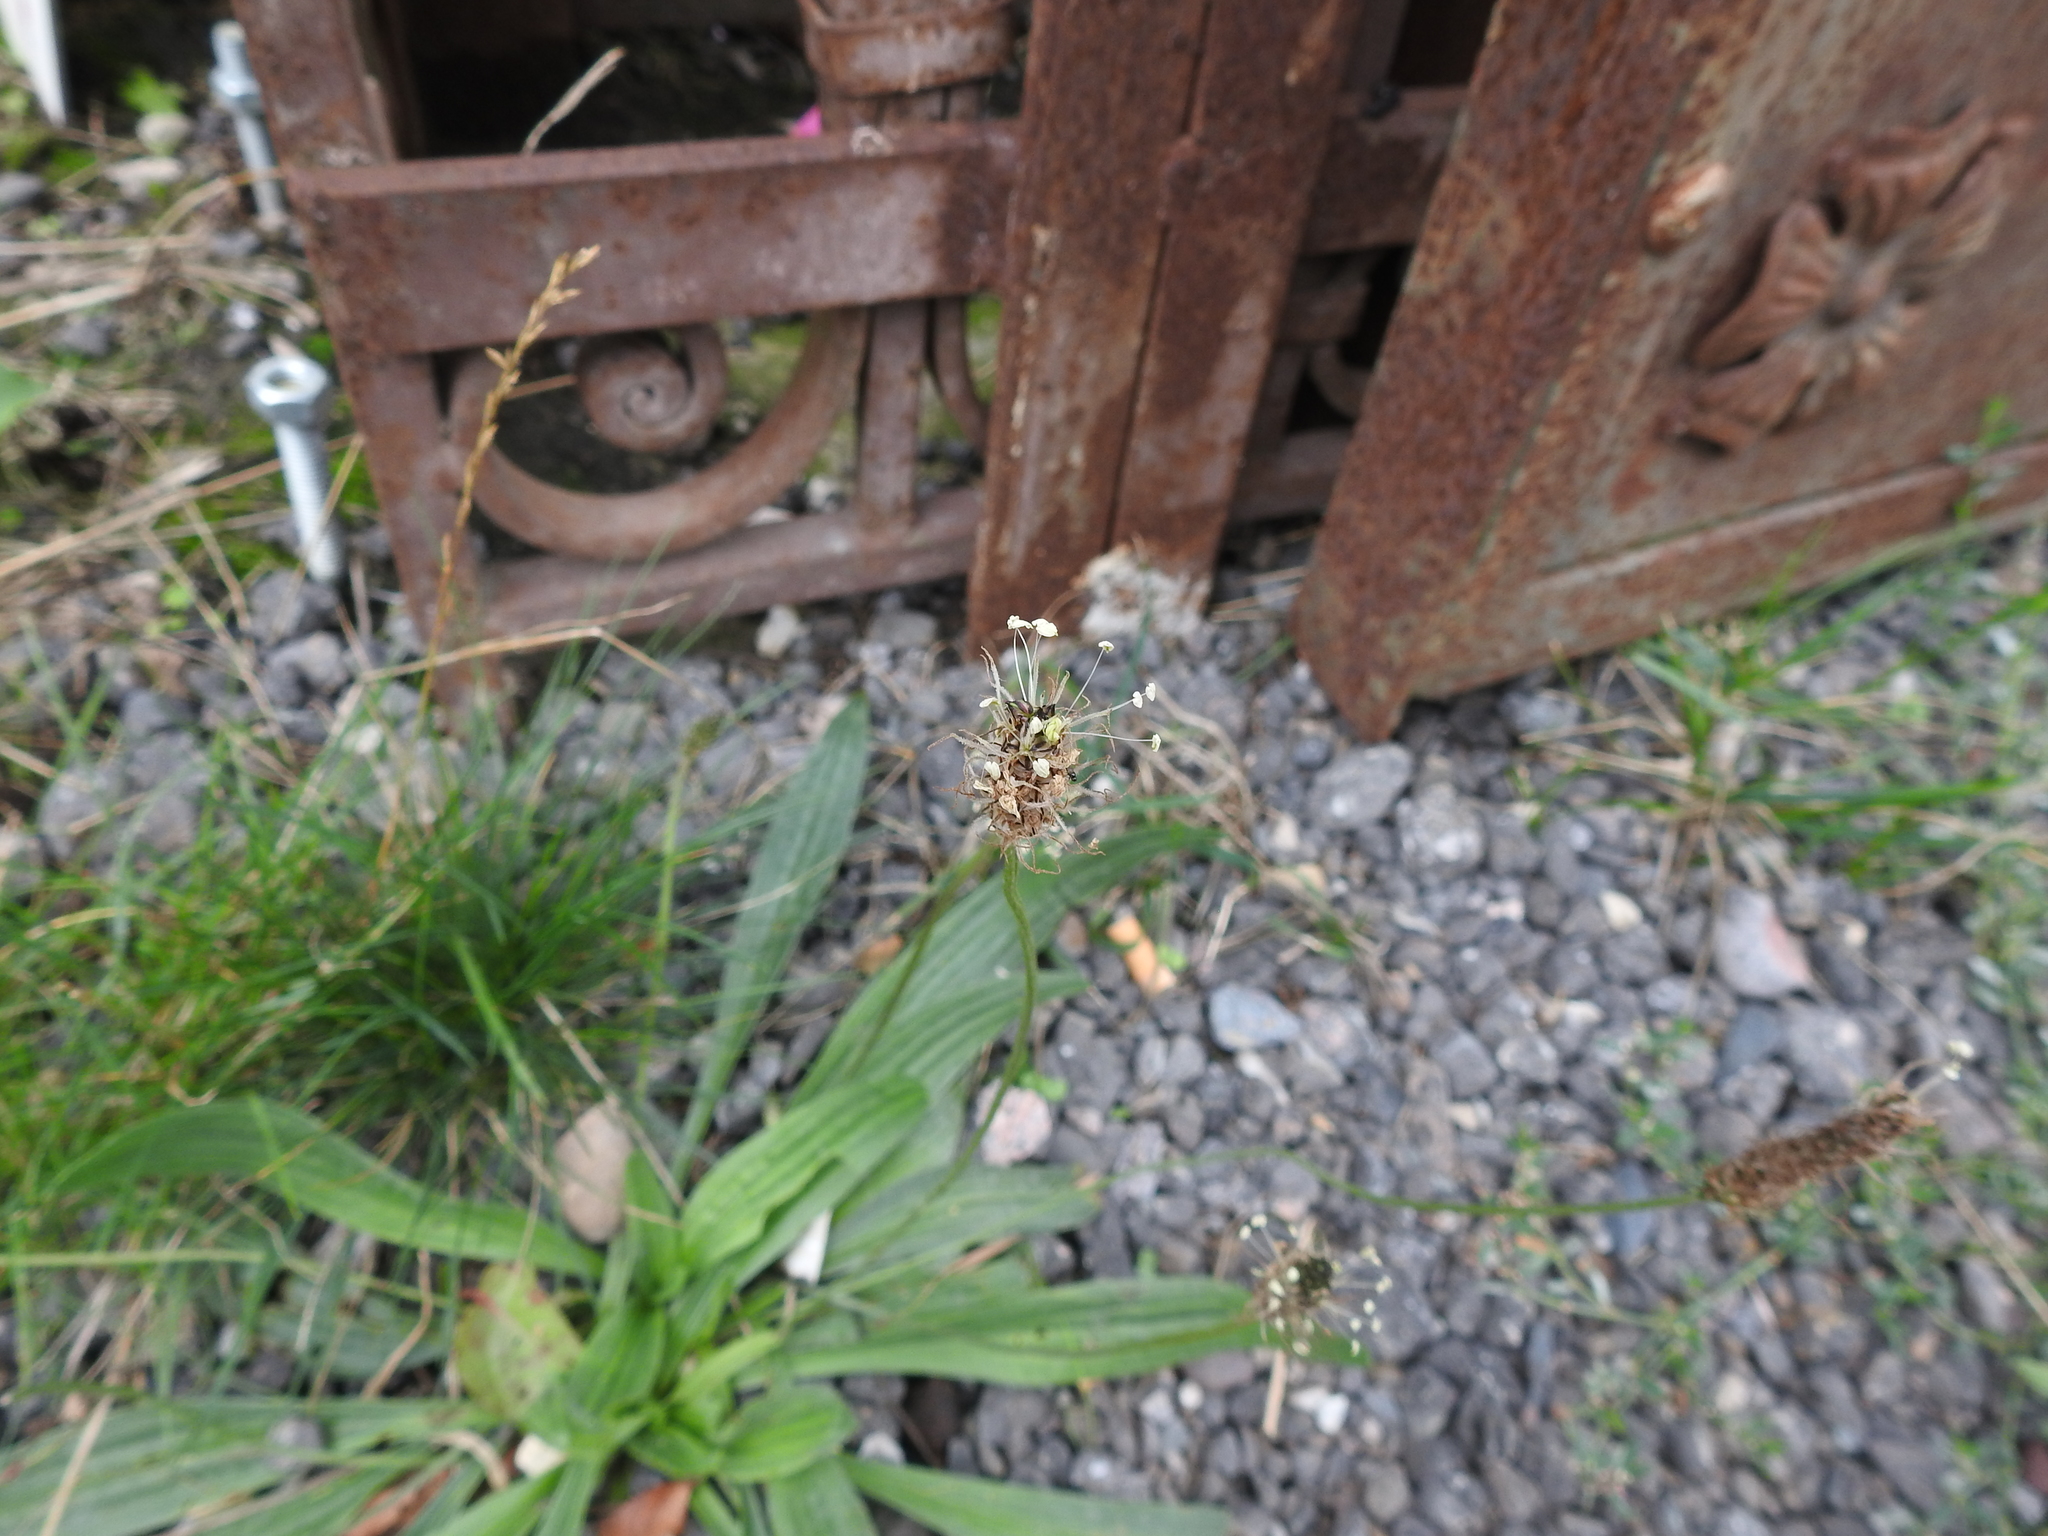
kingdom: Plantae
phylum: Tracheophyta
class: Magnoliopsida
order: Lamiales
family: Plantaginaceae
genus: Plantago
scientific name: Plantago lanceolata
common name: Ribwort plantain
